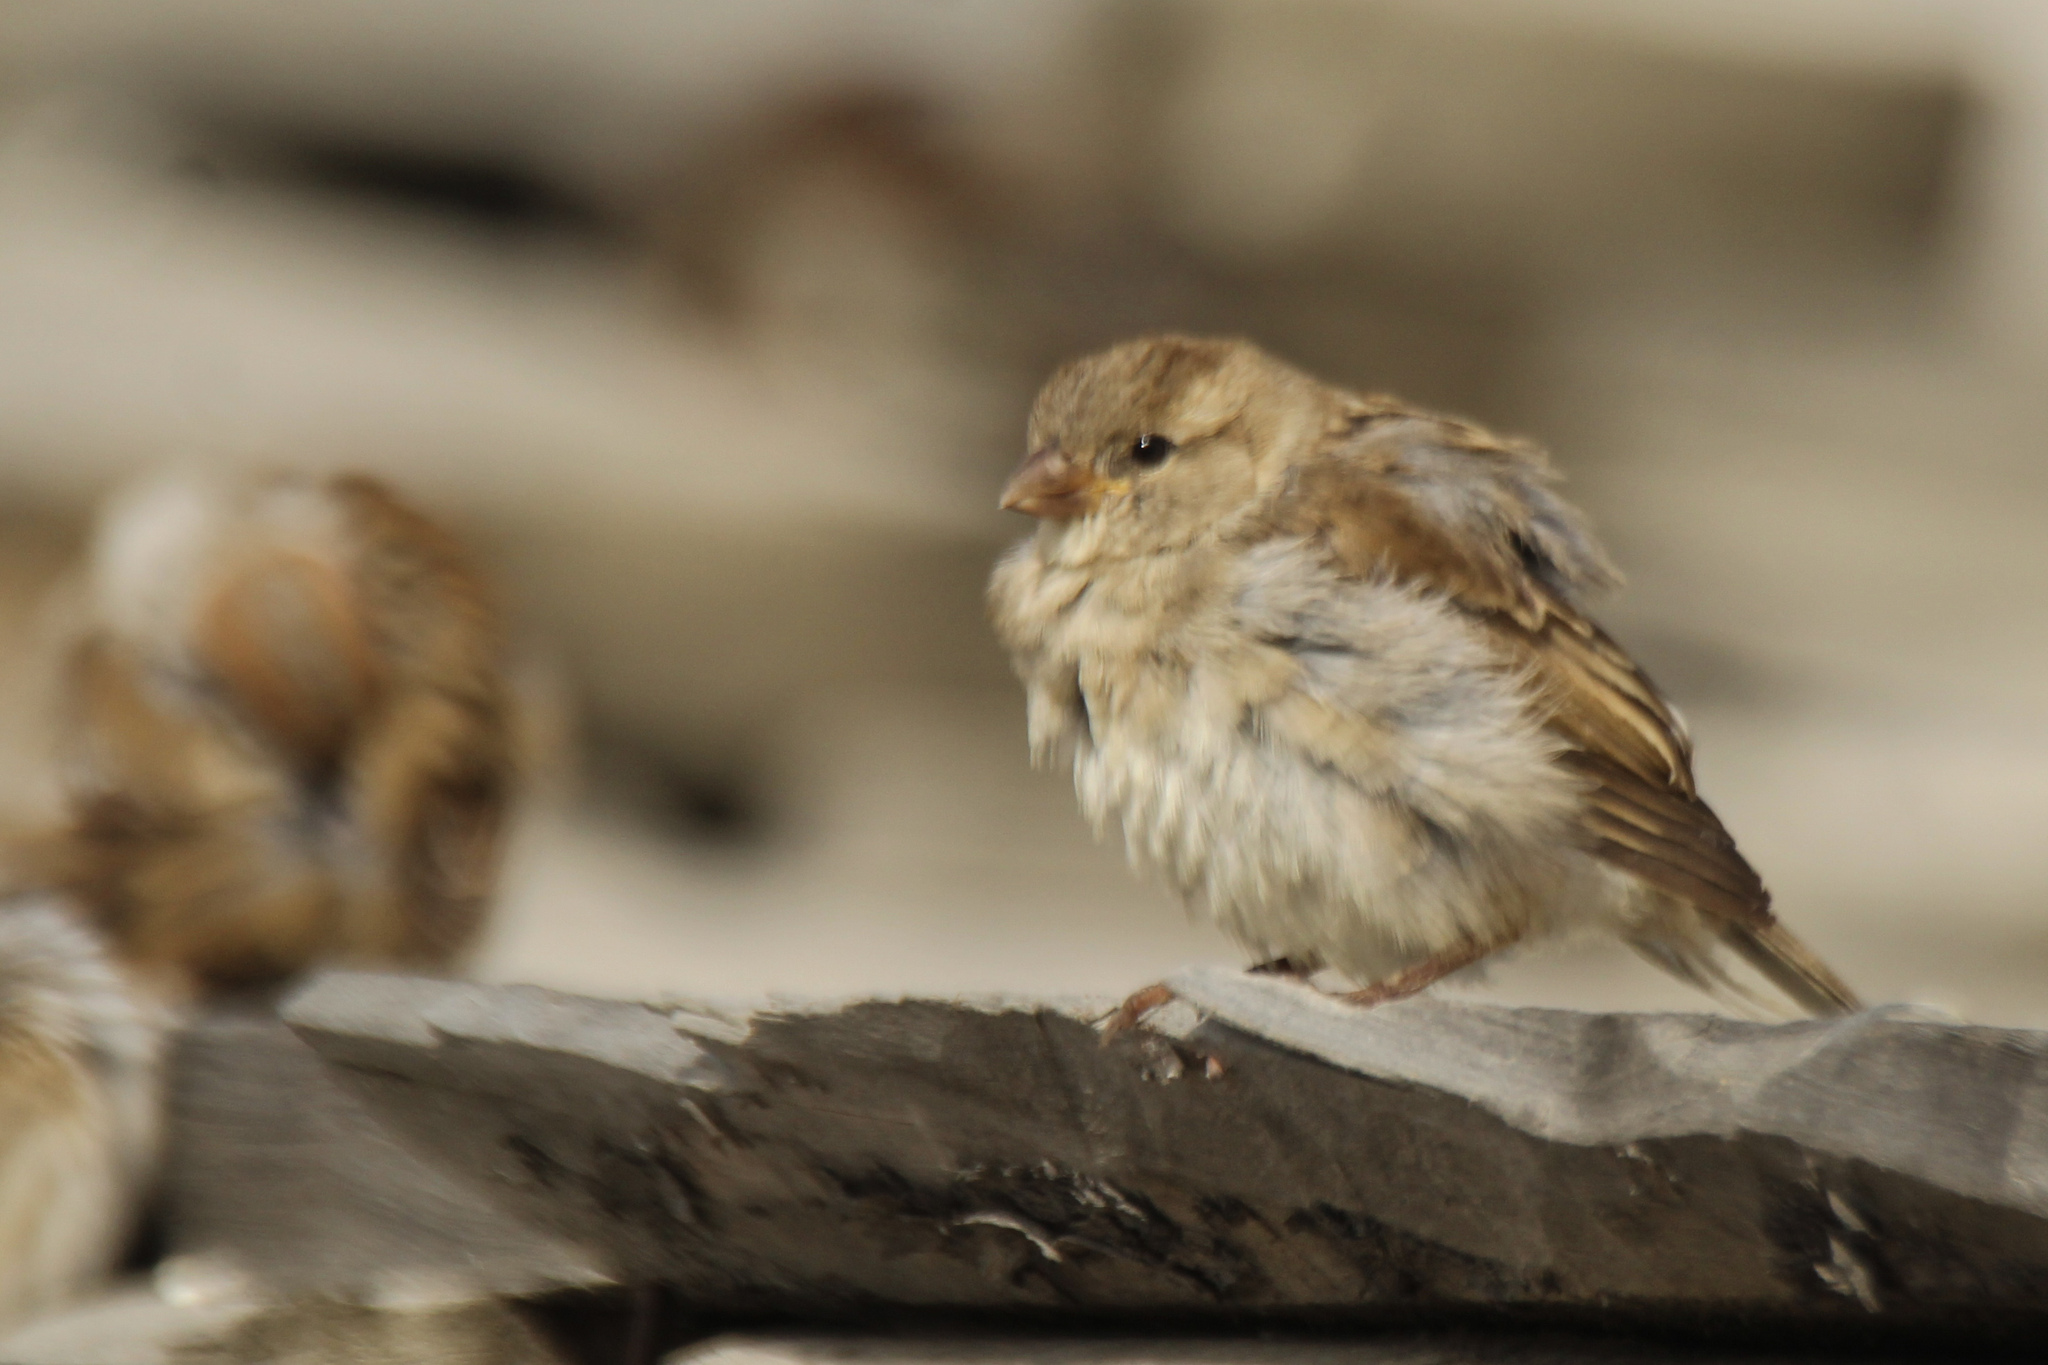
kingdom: Animalia
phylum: Chordata
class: Aves
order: Passeriformes
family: Passeridae
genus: Passer
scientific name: Passer domesticus
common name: House sparrow
